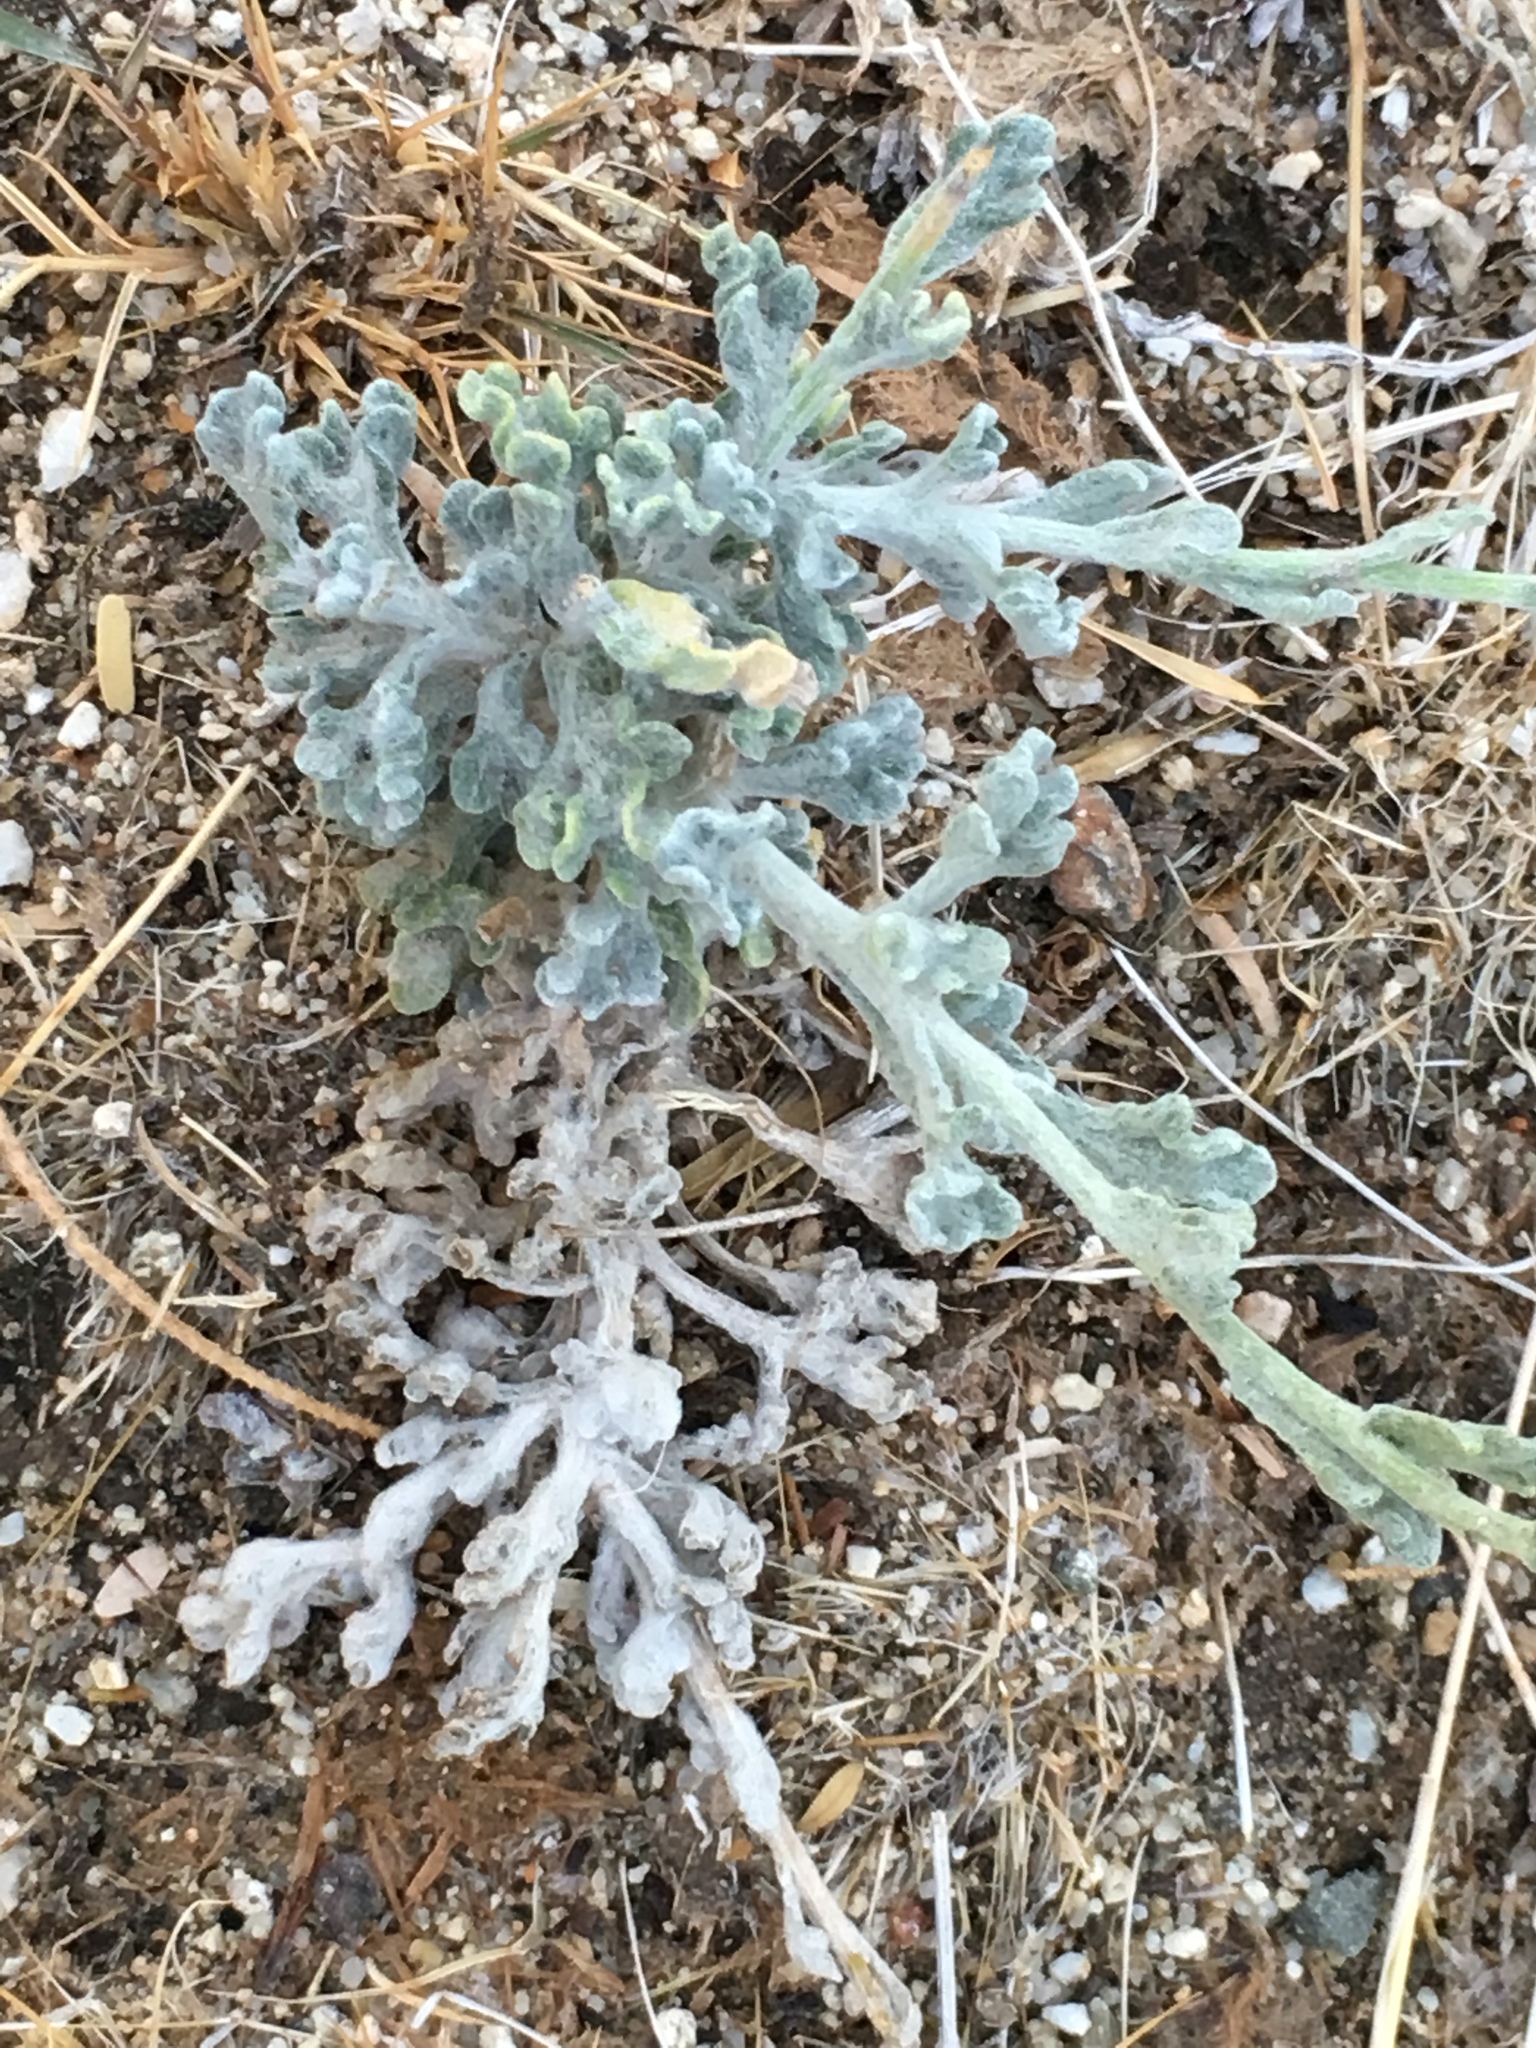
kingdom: Plantae
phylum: Tracheophyta
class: Magnoliopsida
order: Asterales
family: Asteraceae
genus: Baileya
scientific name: Baileya multiradiata
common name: Desert-marigold
